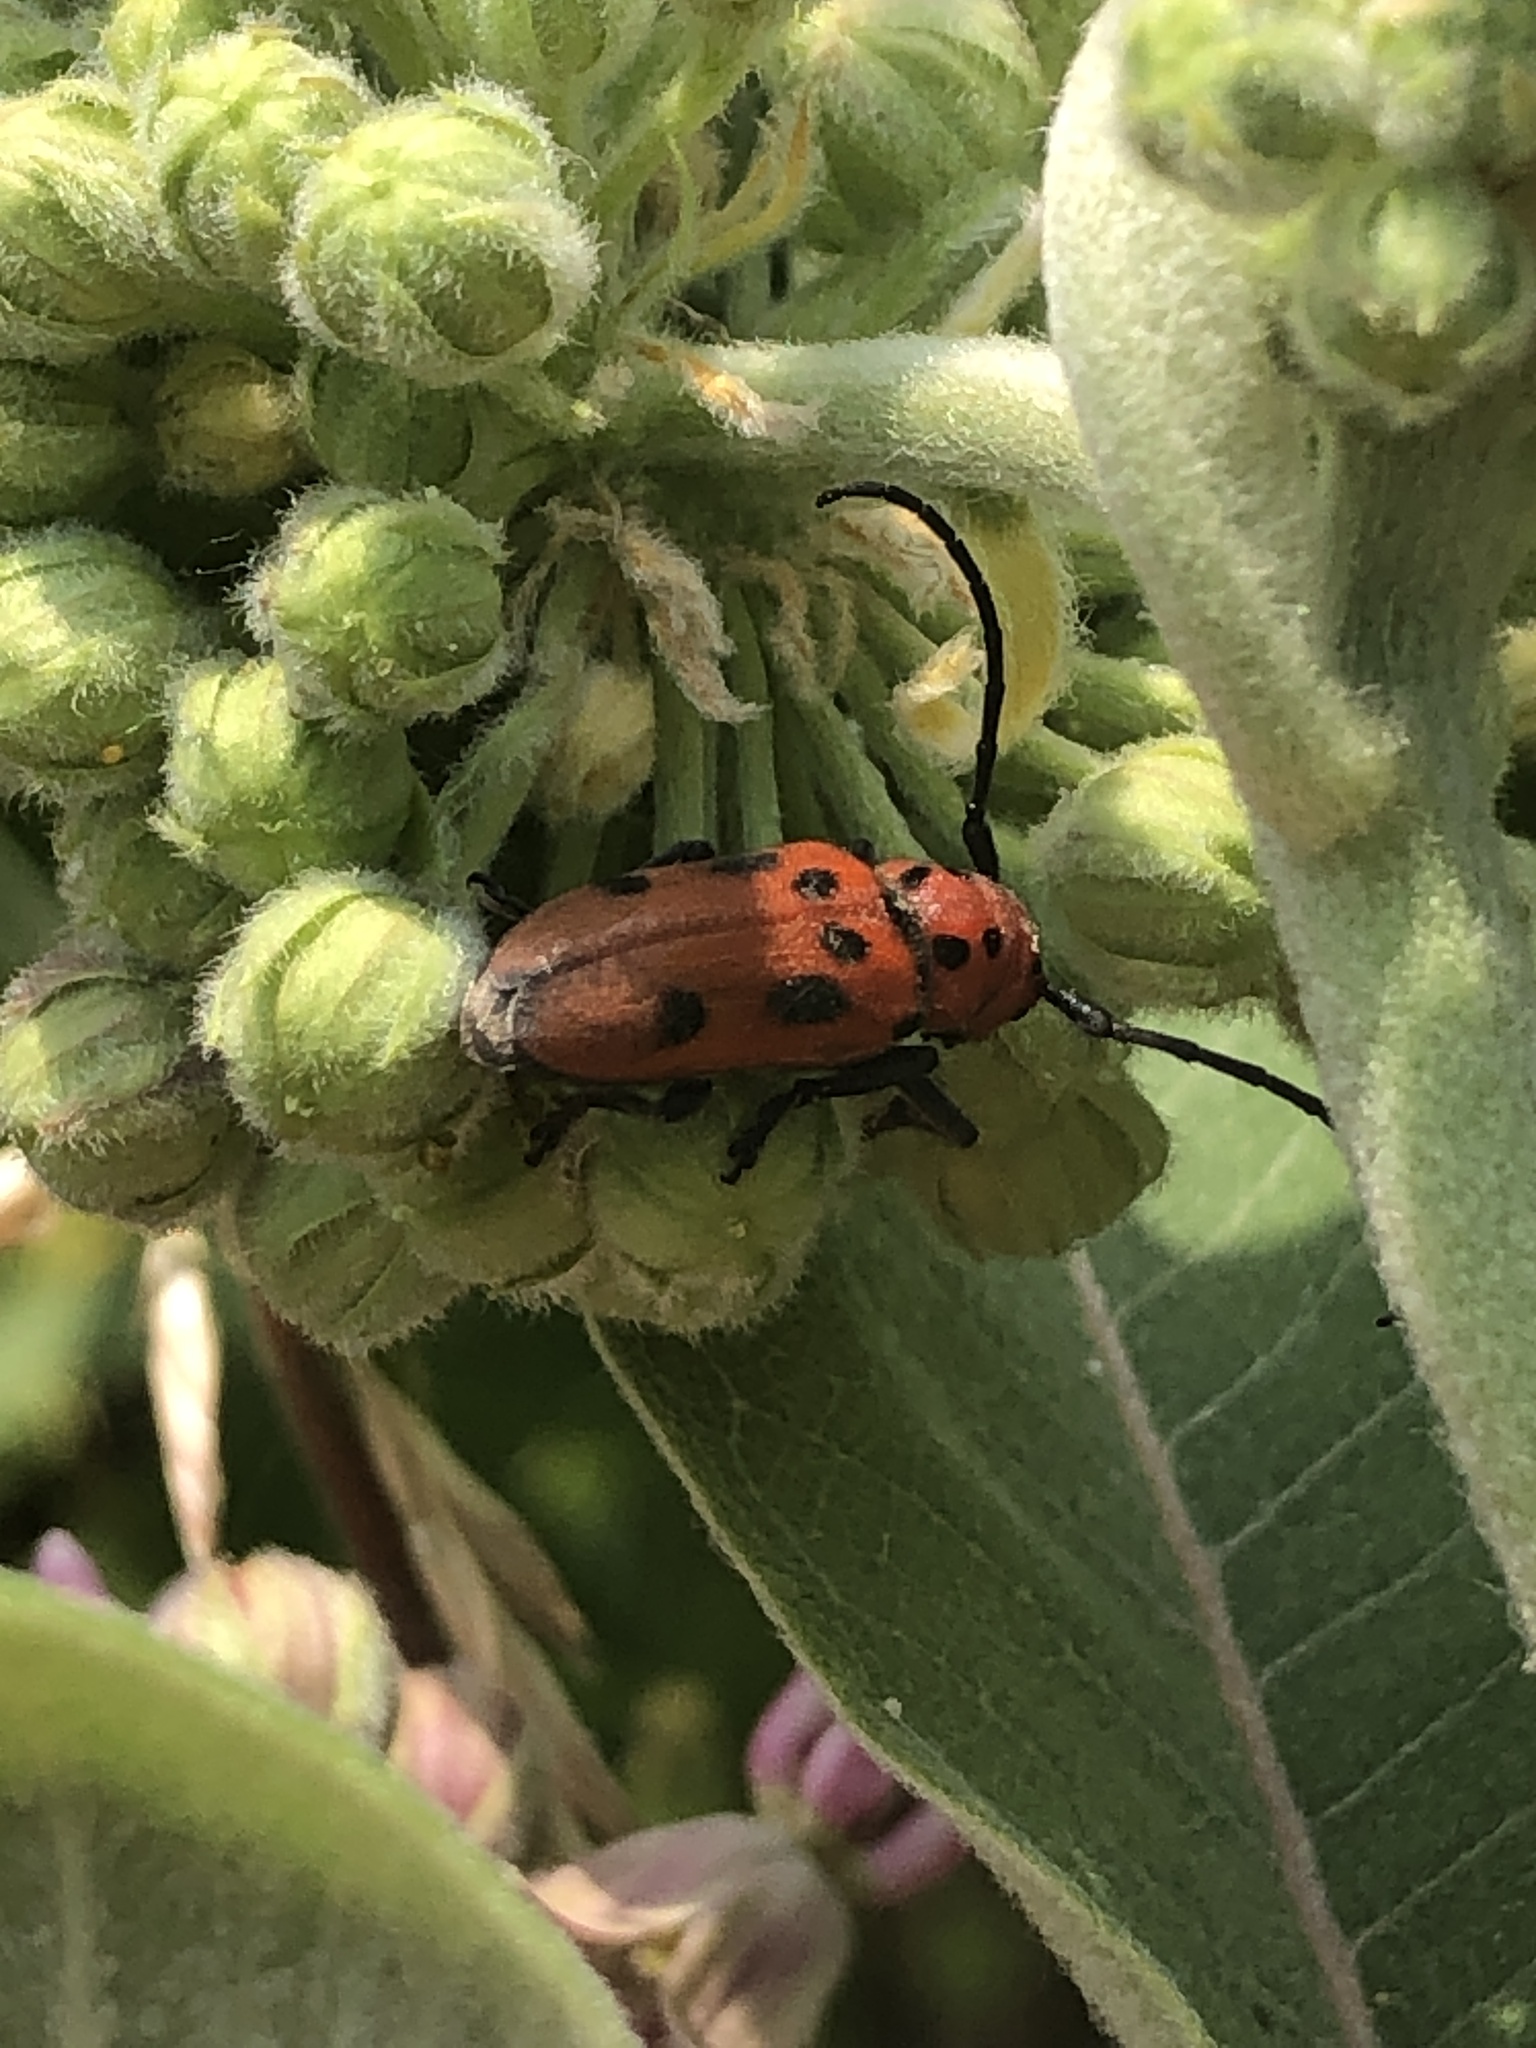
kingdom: Animalia
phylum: Arthropoda
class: Insecta
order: Coleoptera
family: Cerambycidae
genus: Tetraopes
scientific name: Tetraopes tetrophthalmus
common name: Red milkweed beetle
